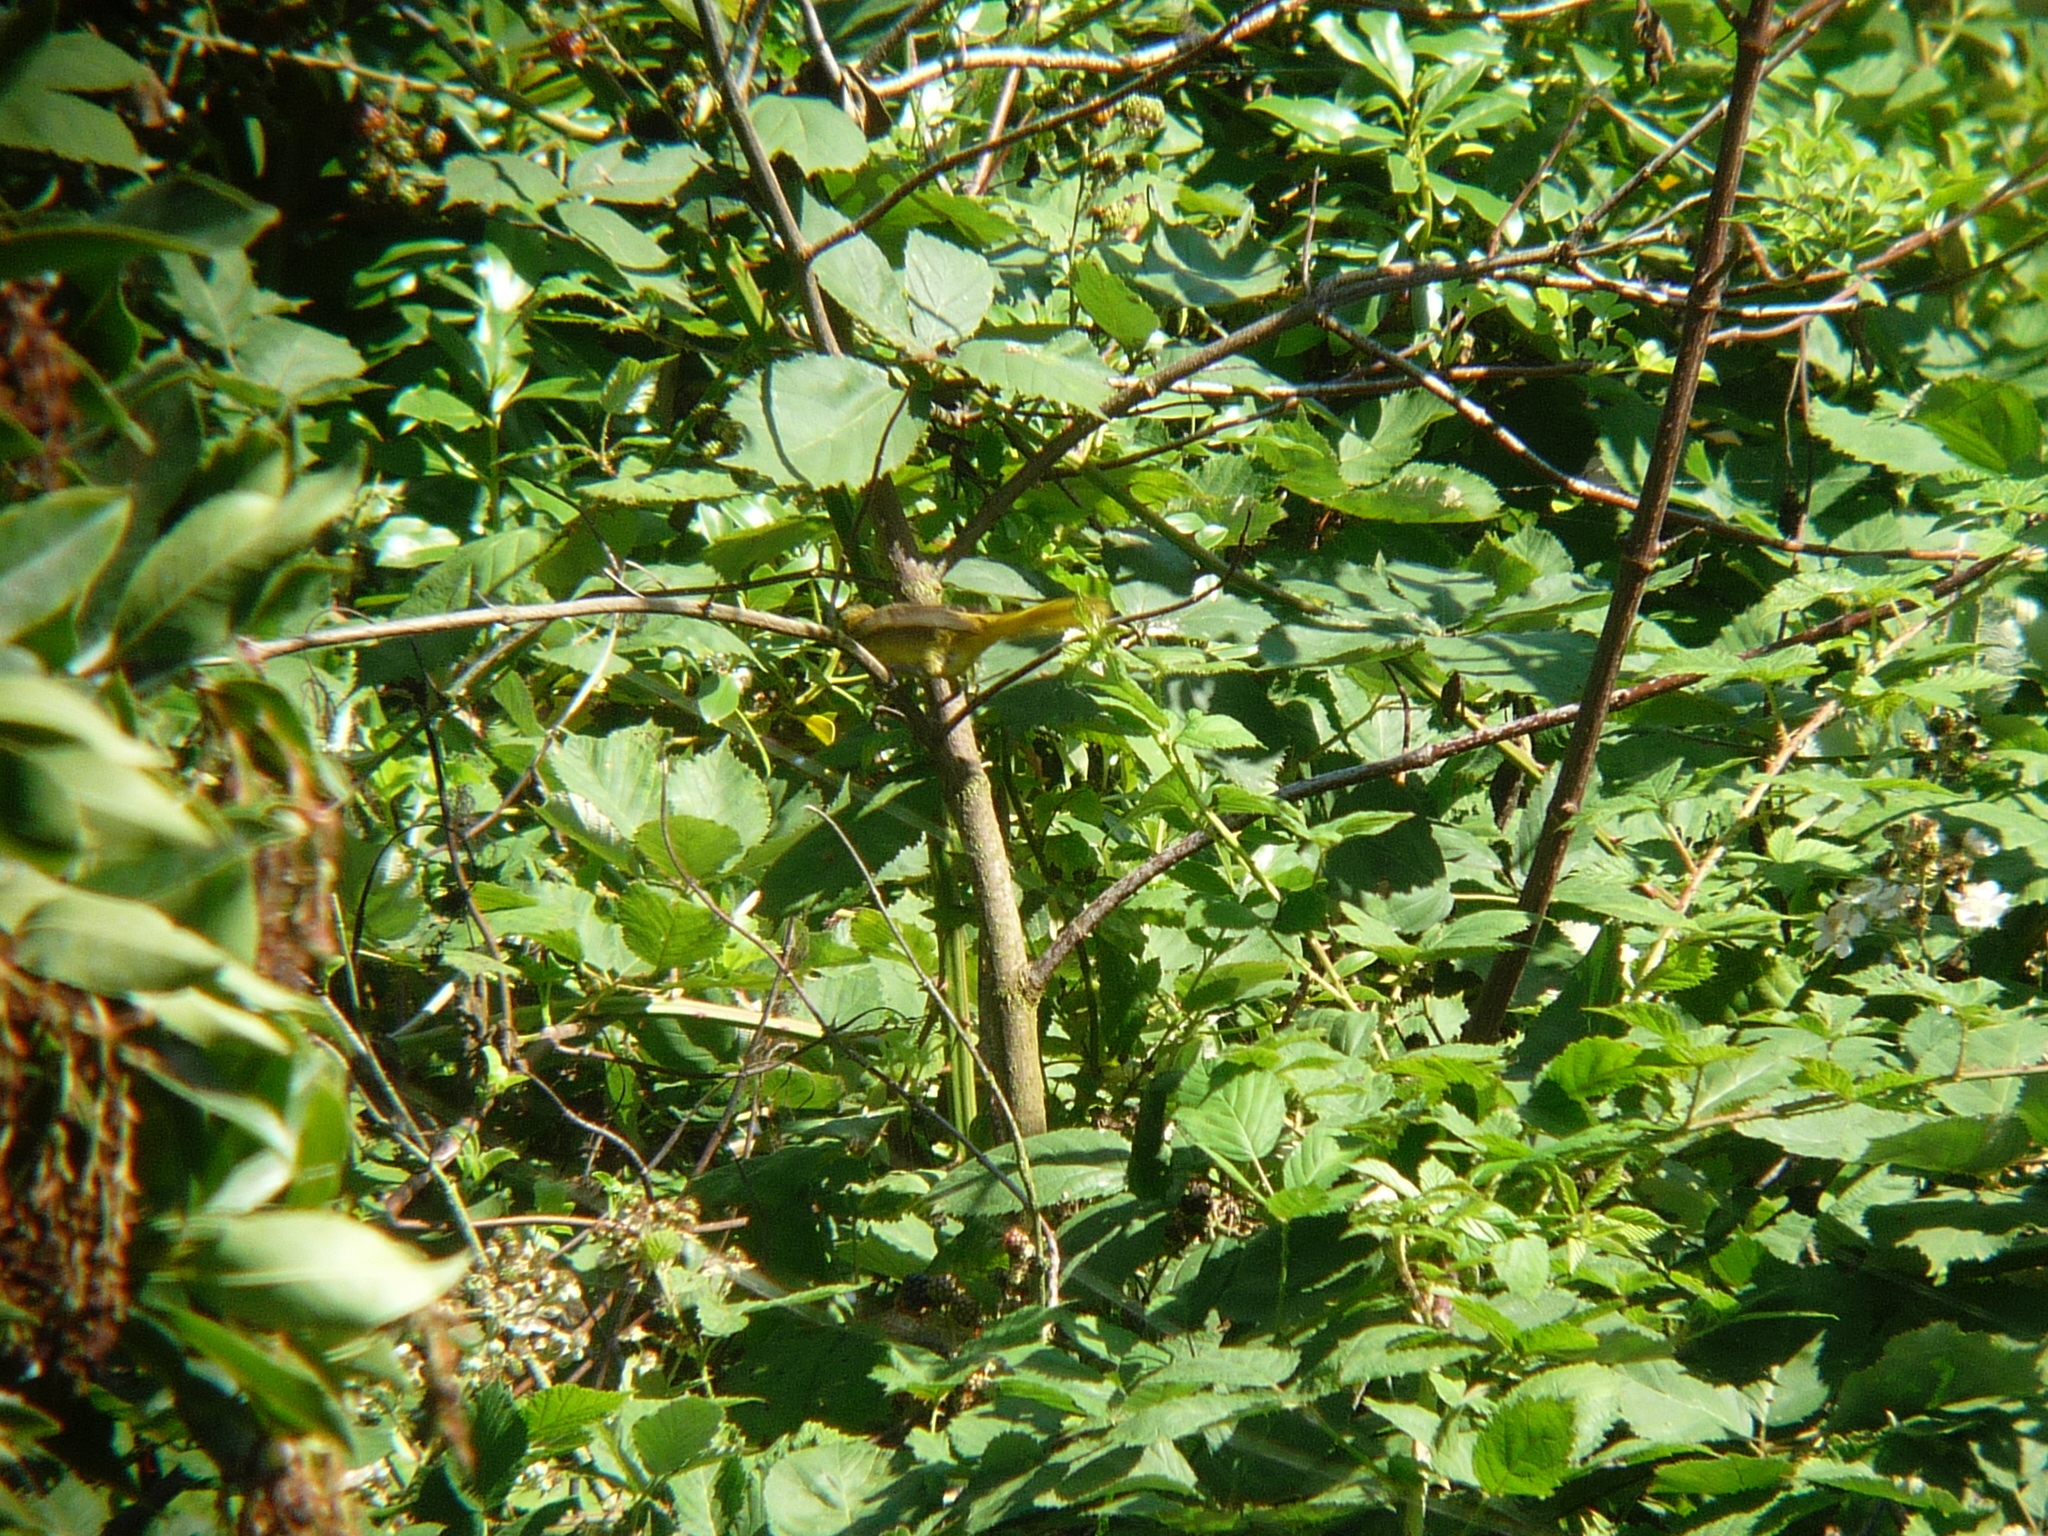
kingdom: Animalia
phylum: Chordata
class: Aves
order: Passeriformes
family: Icteridae
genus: Icterus
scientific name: Icterus spurius
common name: Orchard oriole
